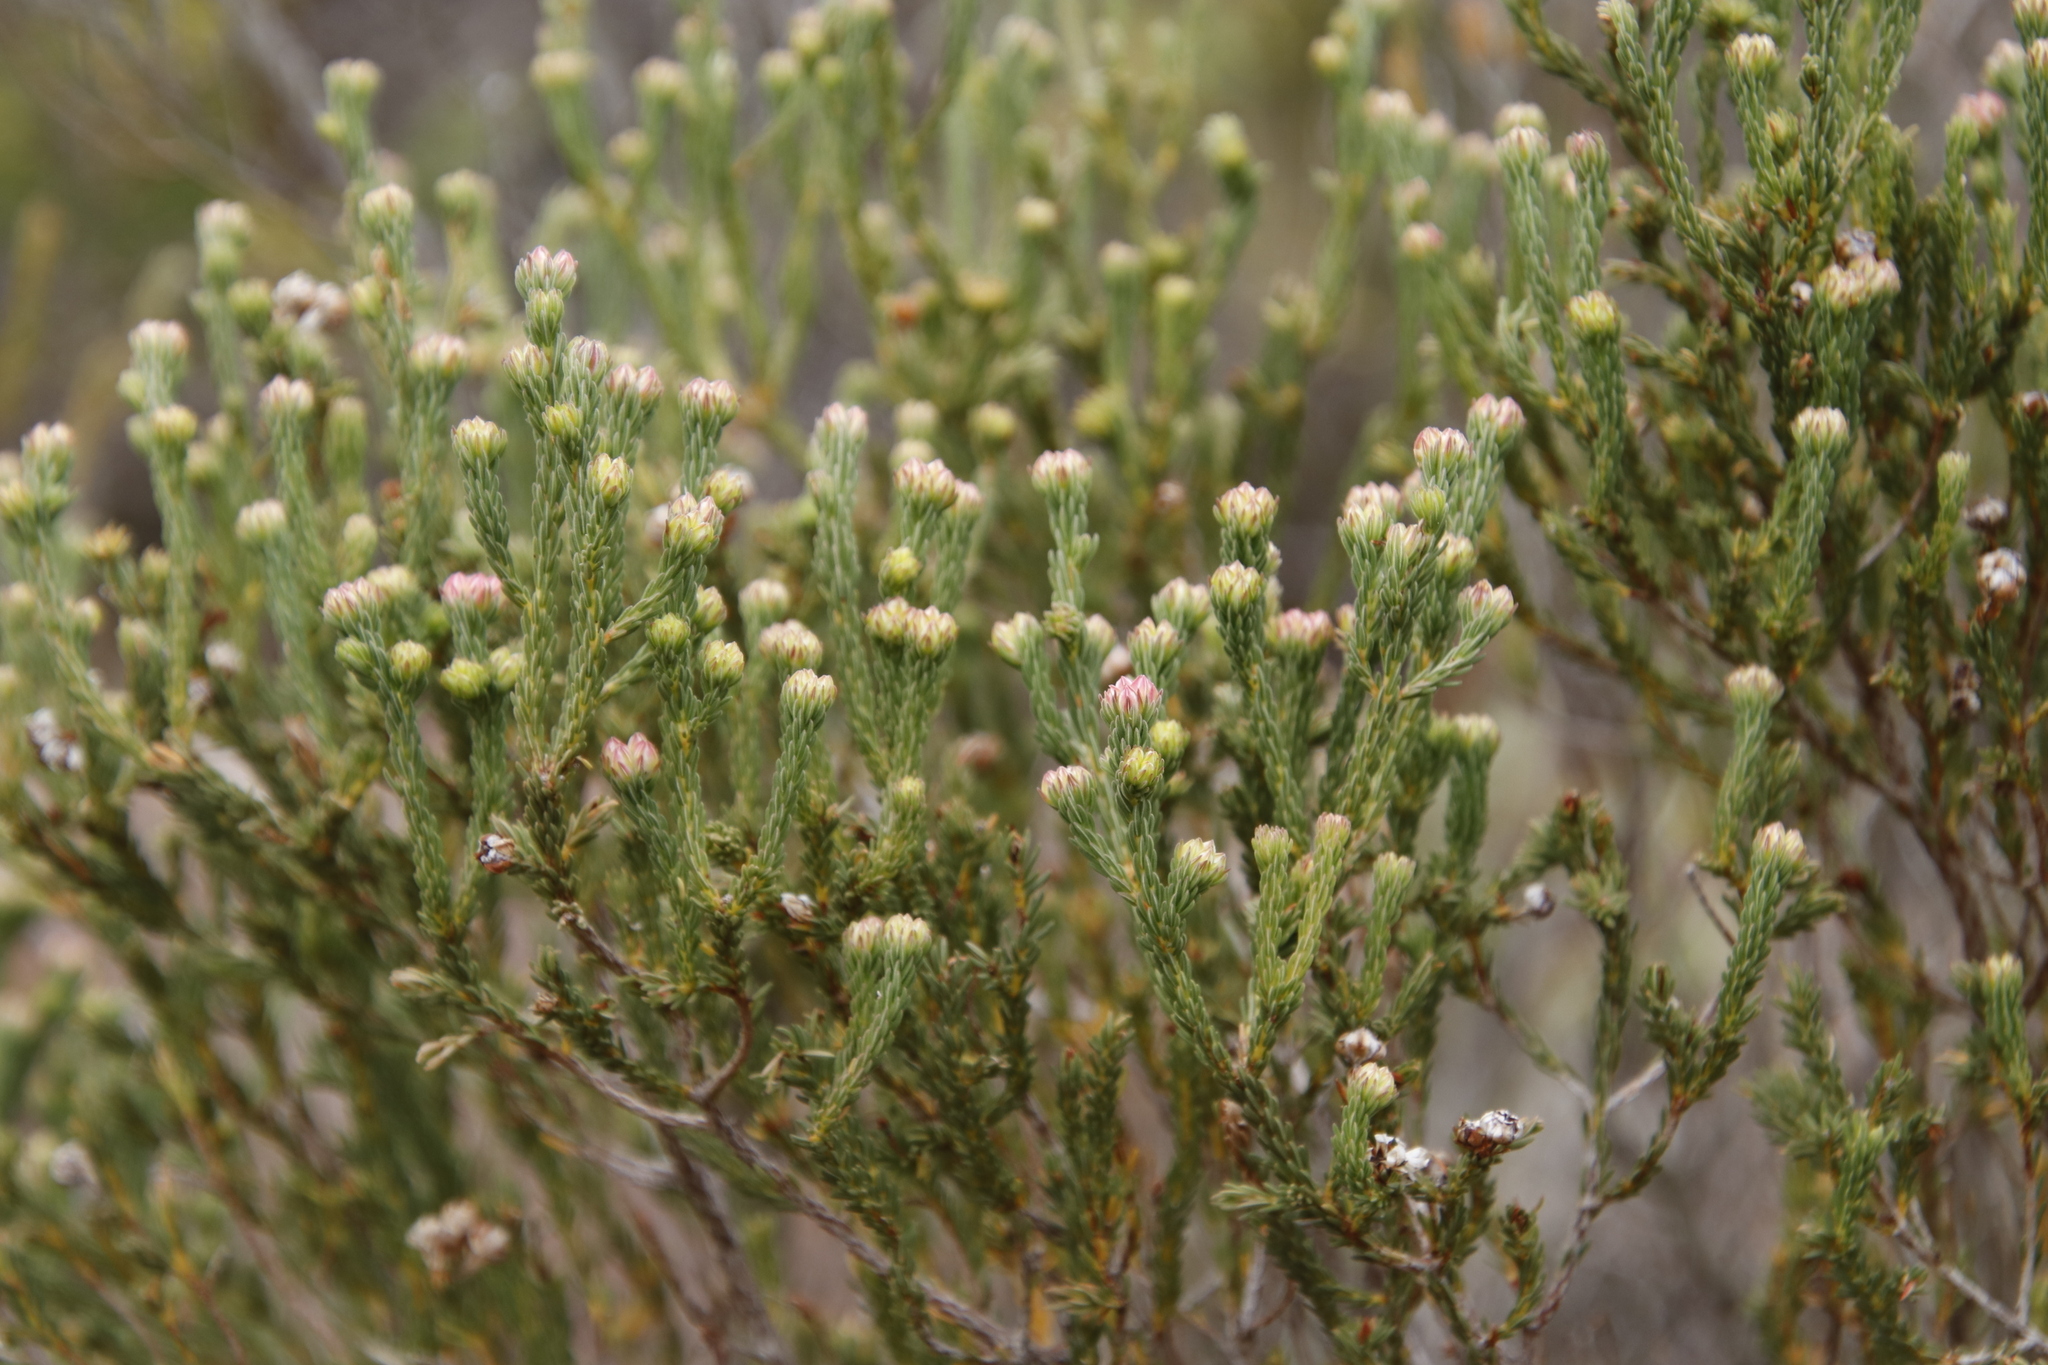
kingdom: Plantae
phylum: Tracheophyta
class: Magnoliopsida
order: Ericales
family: Ericaceae
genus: Erica
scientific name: Erica baccans
